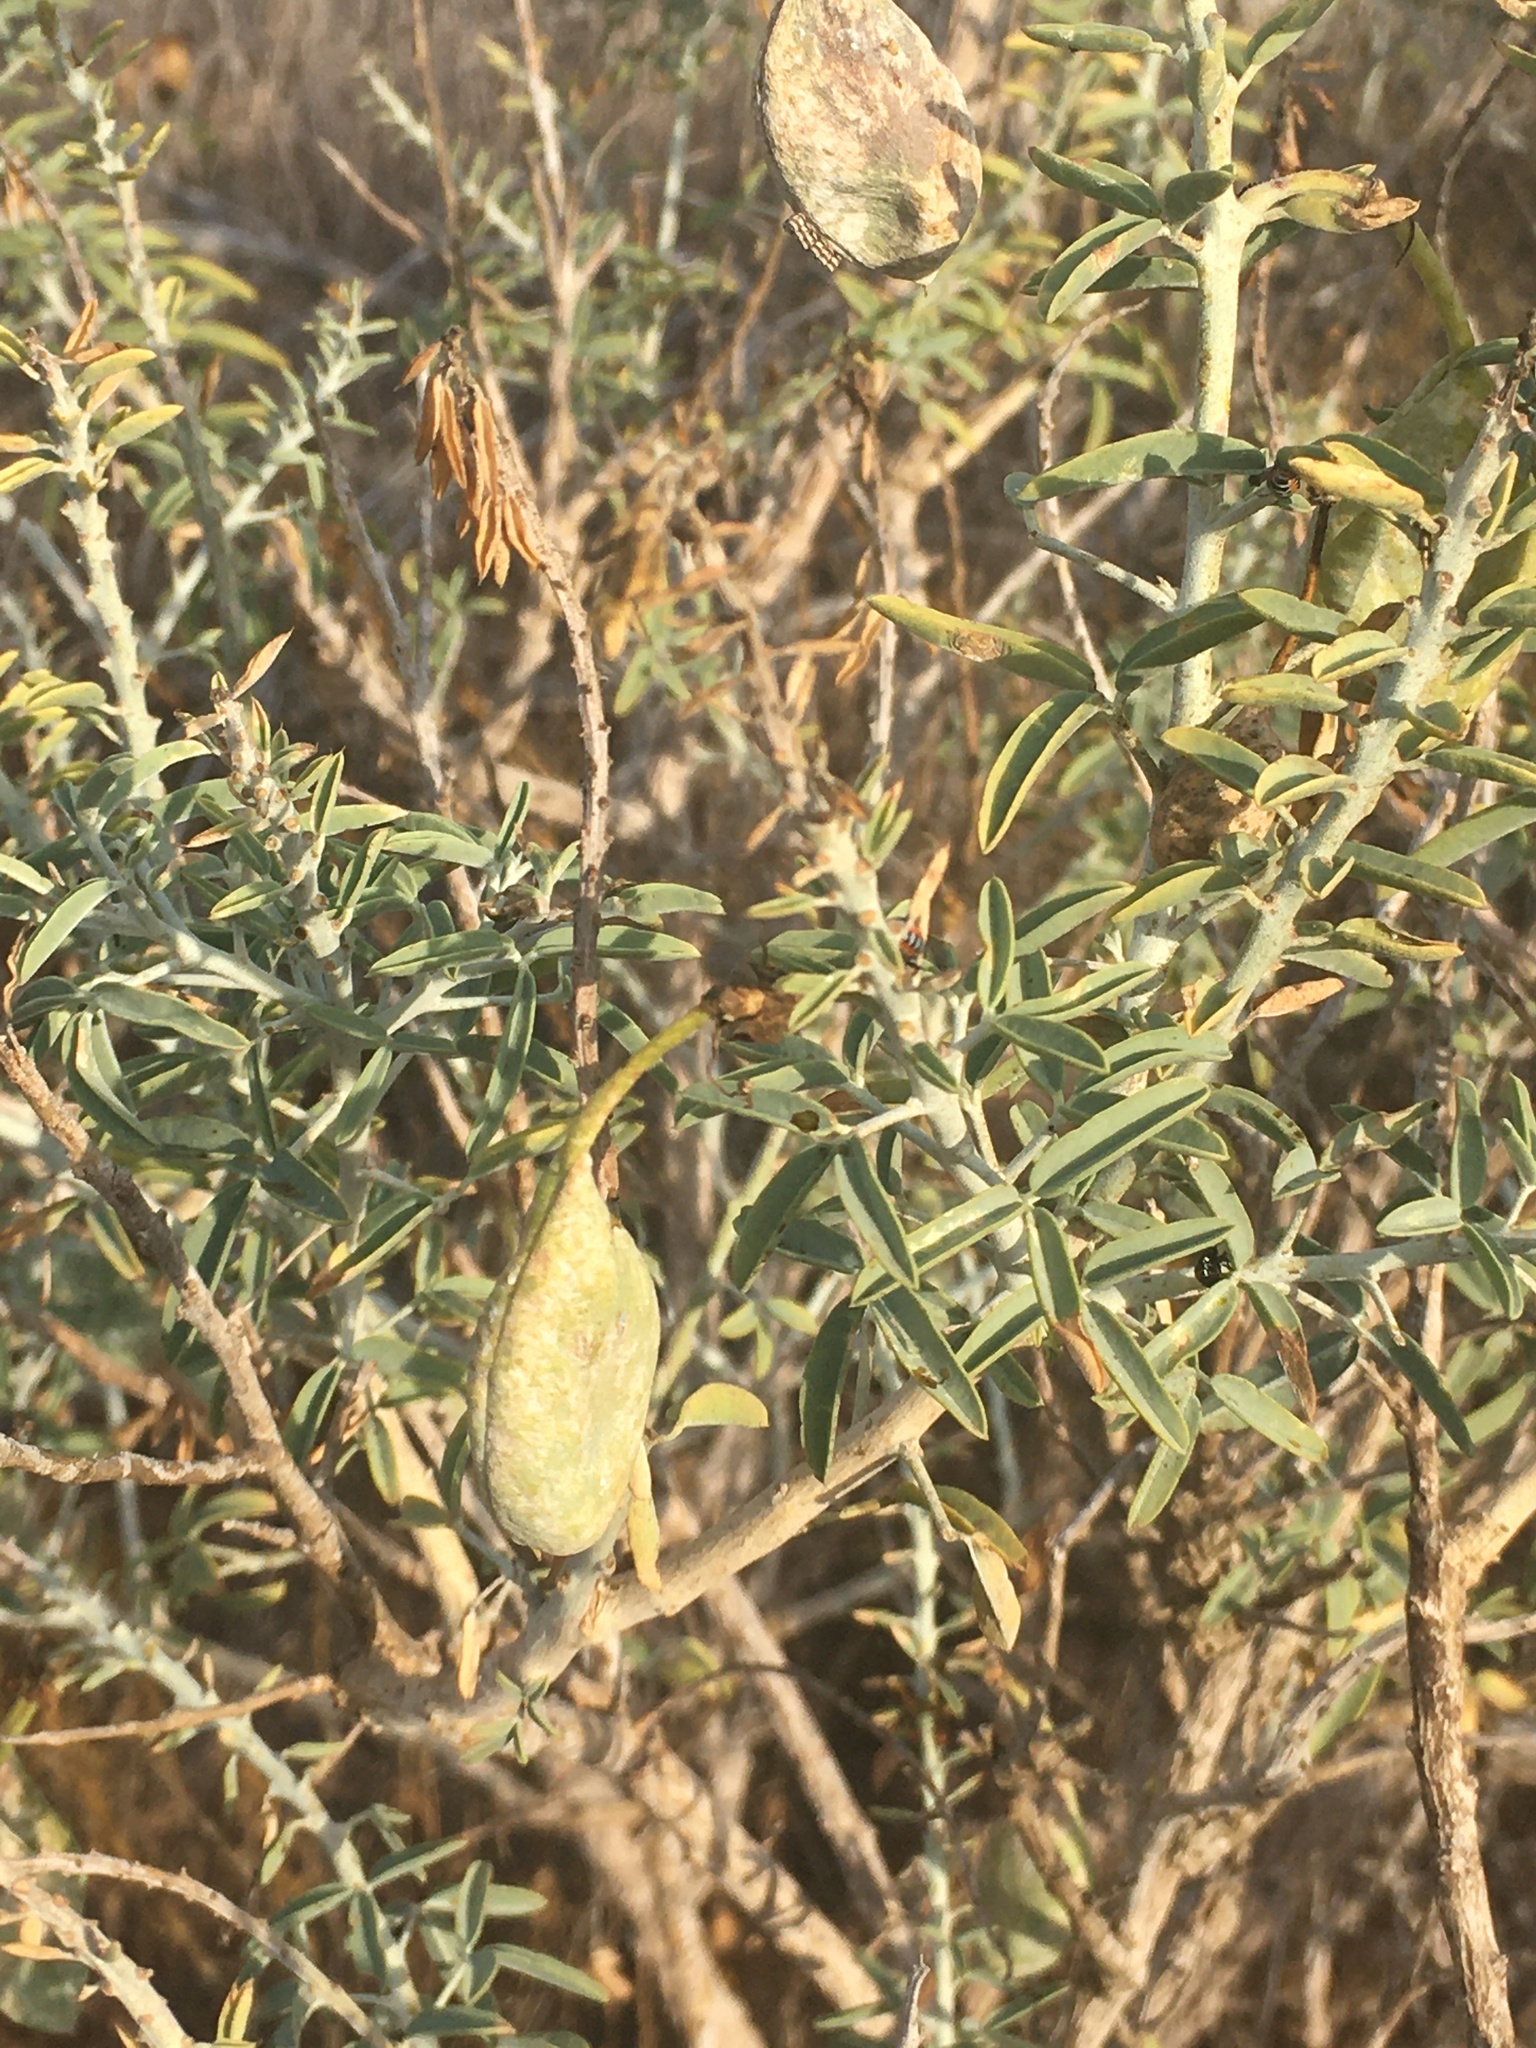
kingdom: Plantae
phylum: Tracheophyta
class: Magnoliopsida
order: Brassicales
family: Cleomaceae
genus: Cleomella
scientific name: Cleomella arborea
